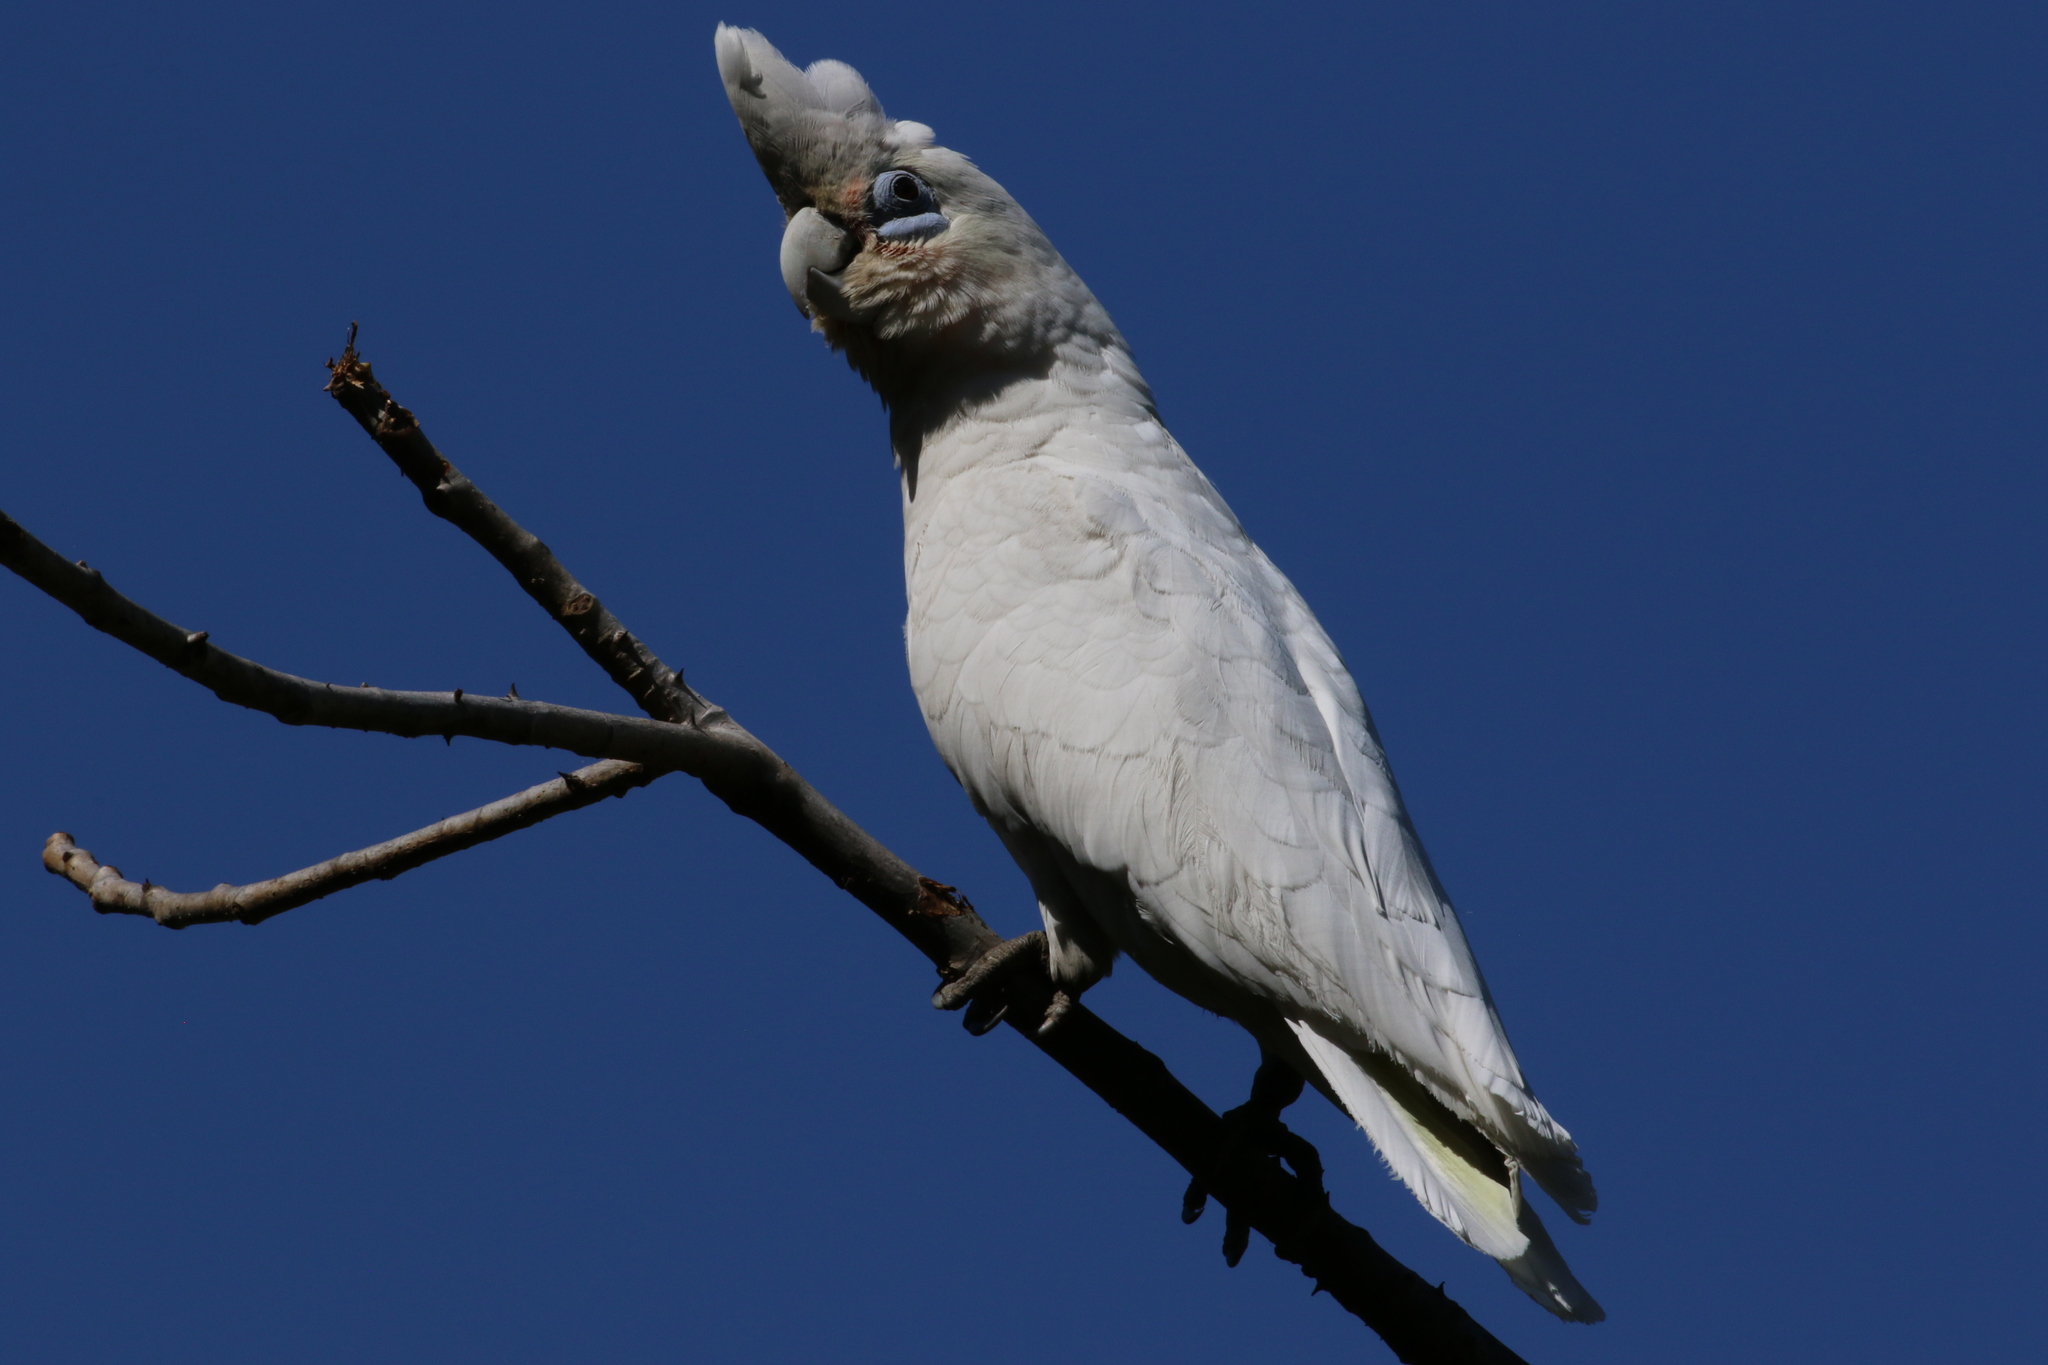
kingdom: Animalia
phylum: Chordata
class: Aves
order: Psittaciformes
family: Psittacidae
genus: Cacatua
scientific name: Cacatua sanguinea
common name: Little corella
